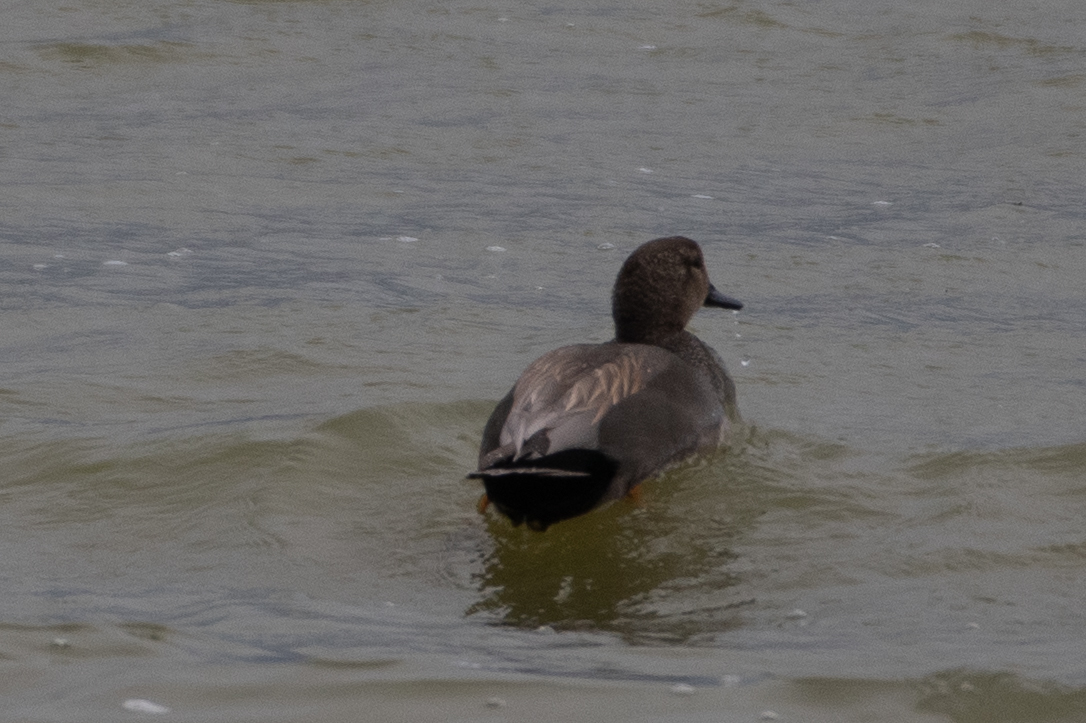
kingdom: Animalia
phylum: Chordata
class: Aves
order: Anseriformes
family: Anatidae
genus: Mareca
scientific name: Mareca strepera
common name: Gadwall
